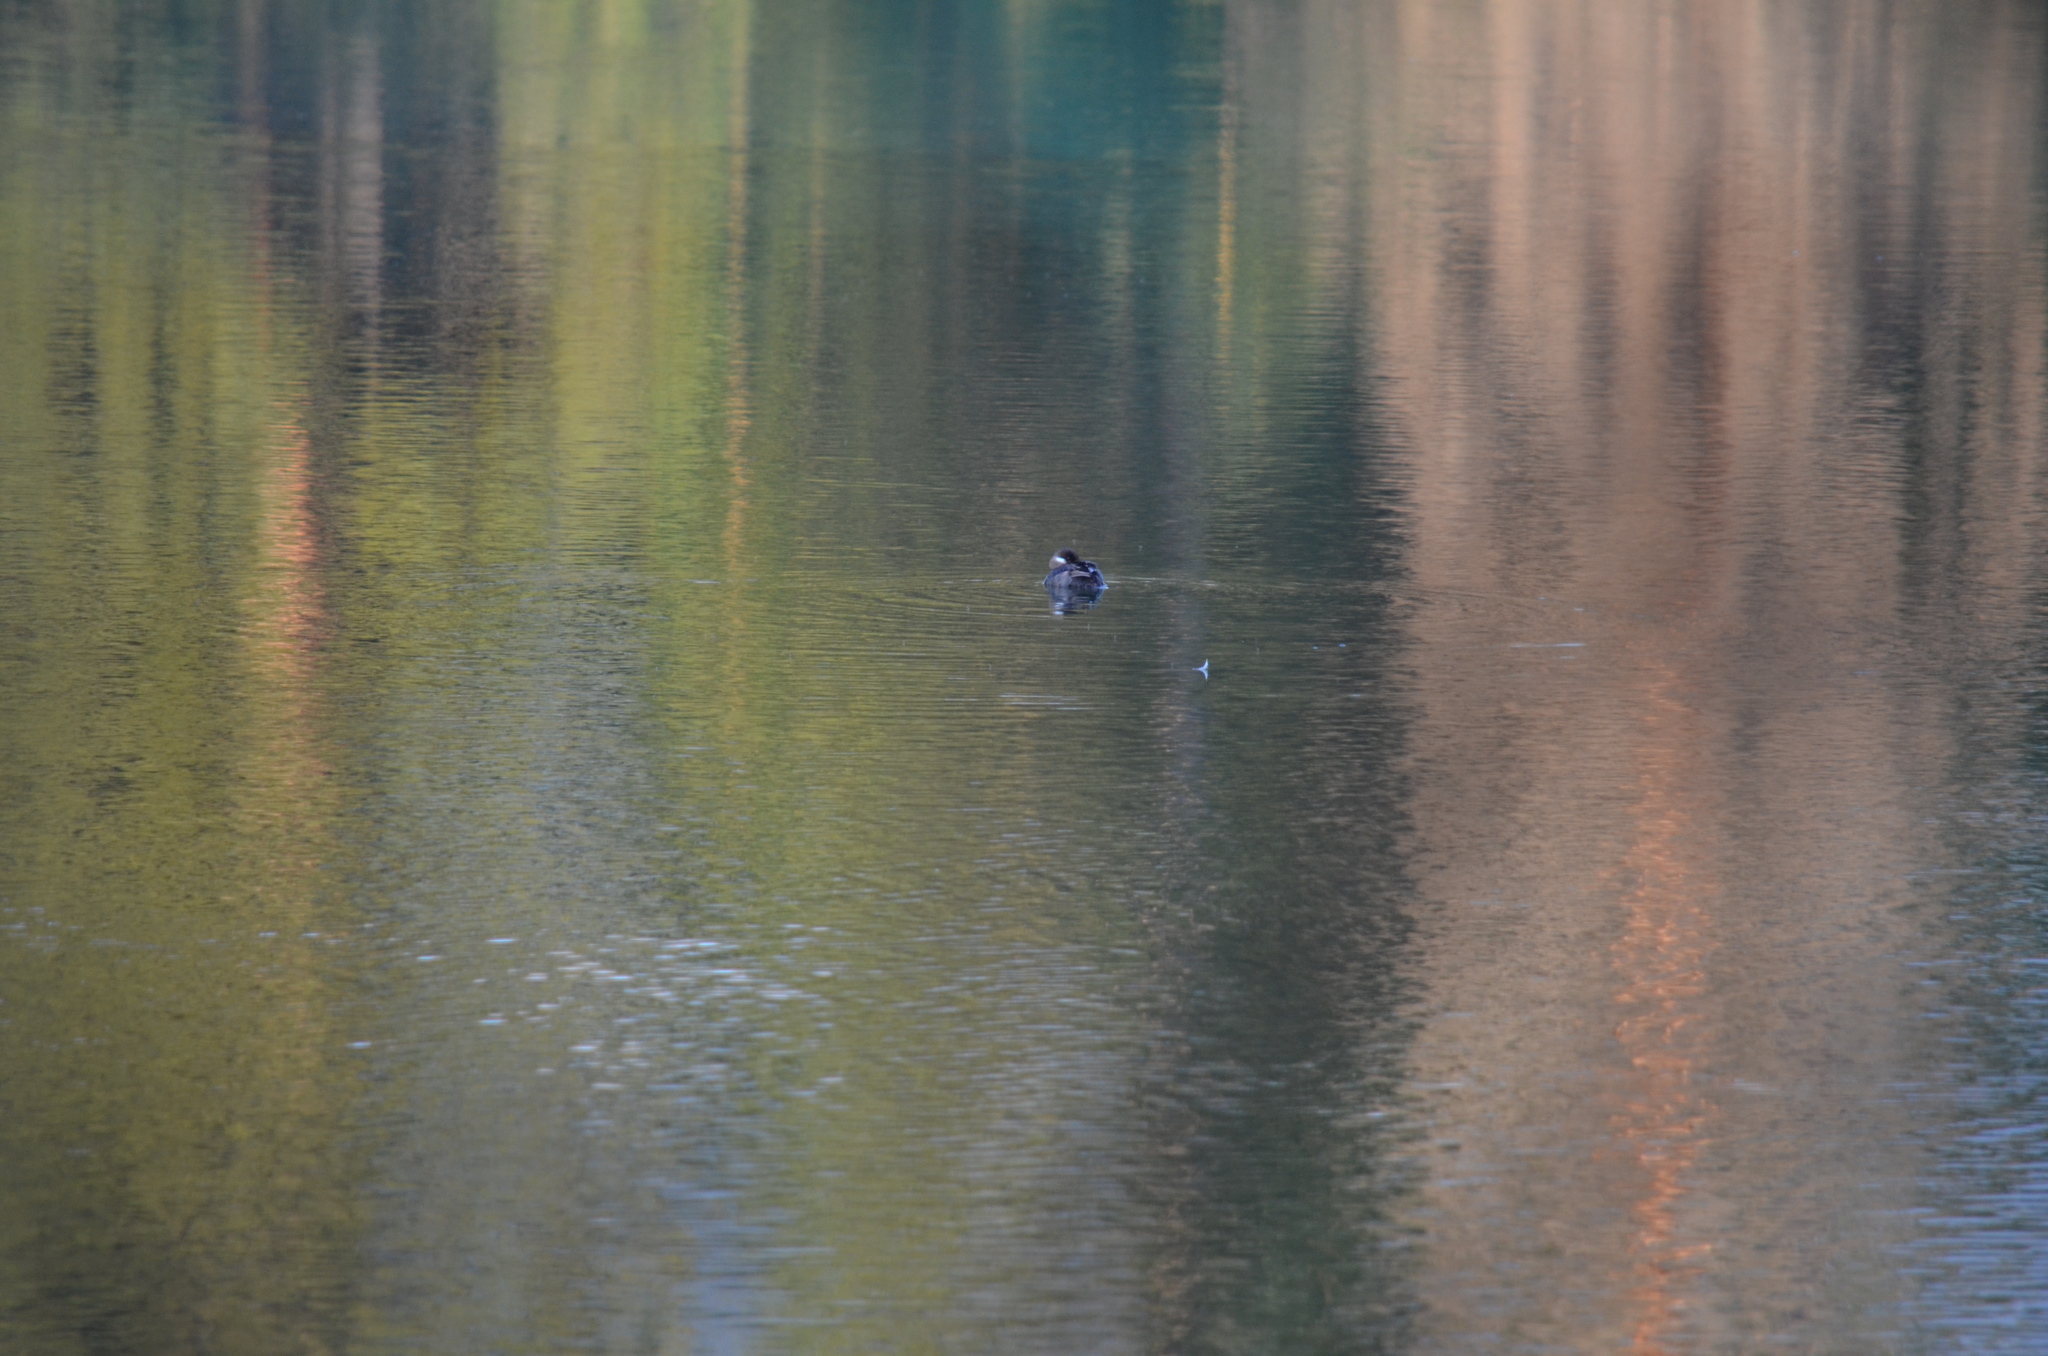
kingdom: Animalia
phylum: Chordata
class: Aves
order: Anseriformes
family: Anatidae
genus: Bucephala
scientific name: Bucephala albeola
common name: Bufflehead
